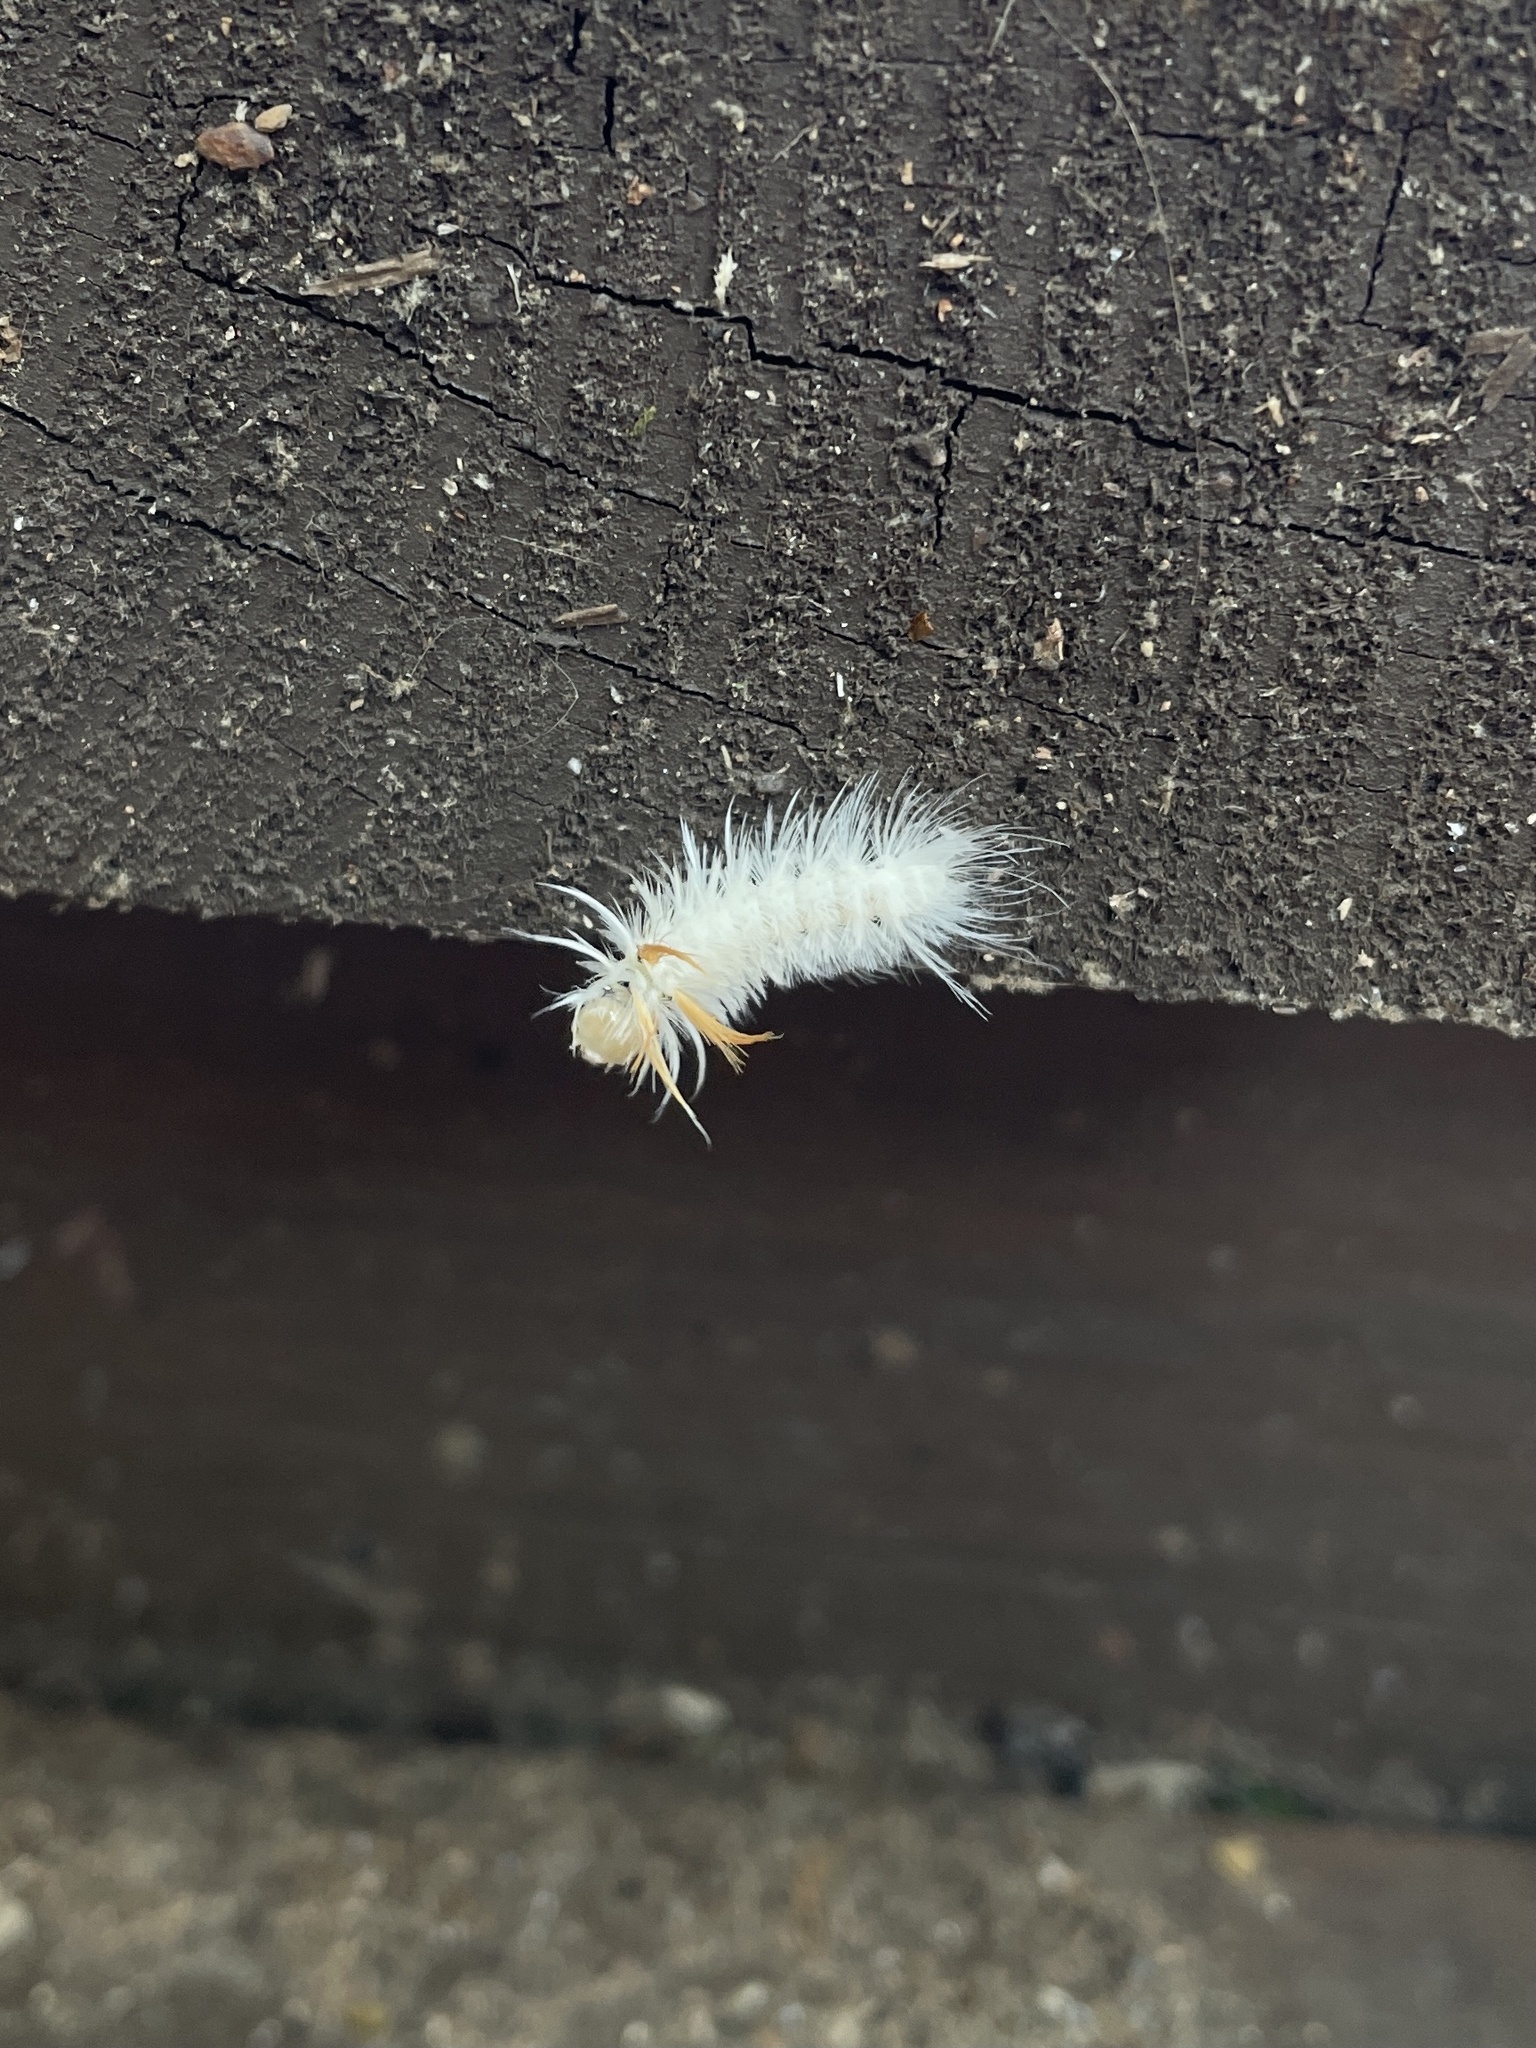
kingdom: Animalia
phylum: Arthropoda
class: Insecta
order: Lepidoptera
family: Erebidae
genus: Halysidota
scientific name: Halysidota harrisii
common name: Sycamore tussock moth
